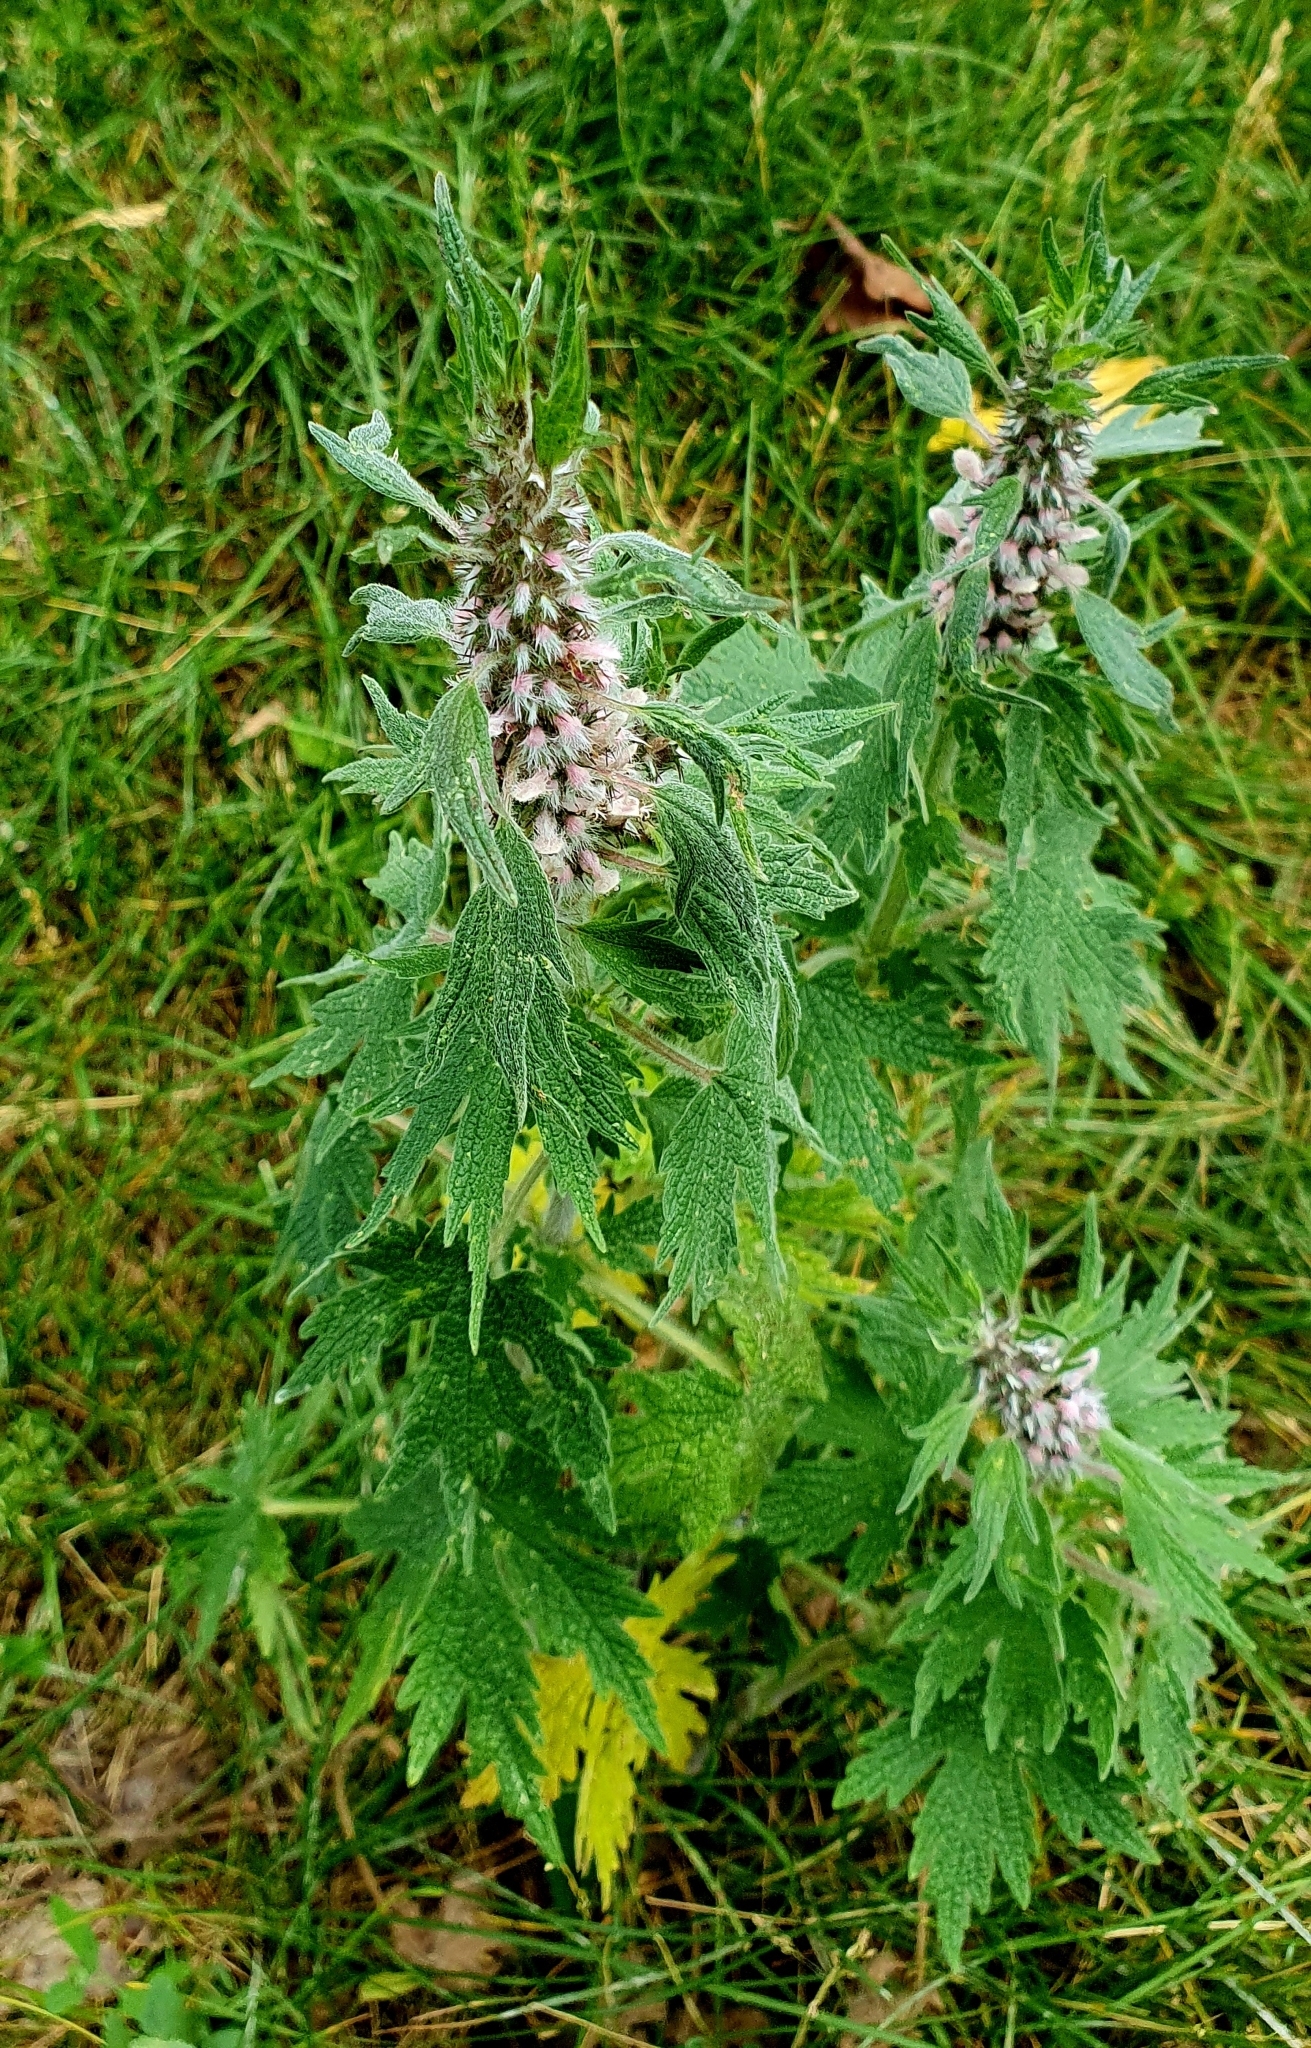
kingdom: Plantae
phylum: Tracheophyta
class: Magnoliopsida
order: Lamiales
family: Lamiaceae
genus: Leonurus
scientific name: Leonurus quinquelobatus
